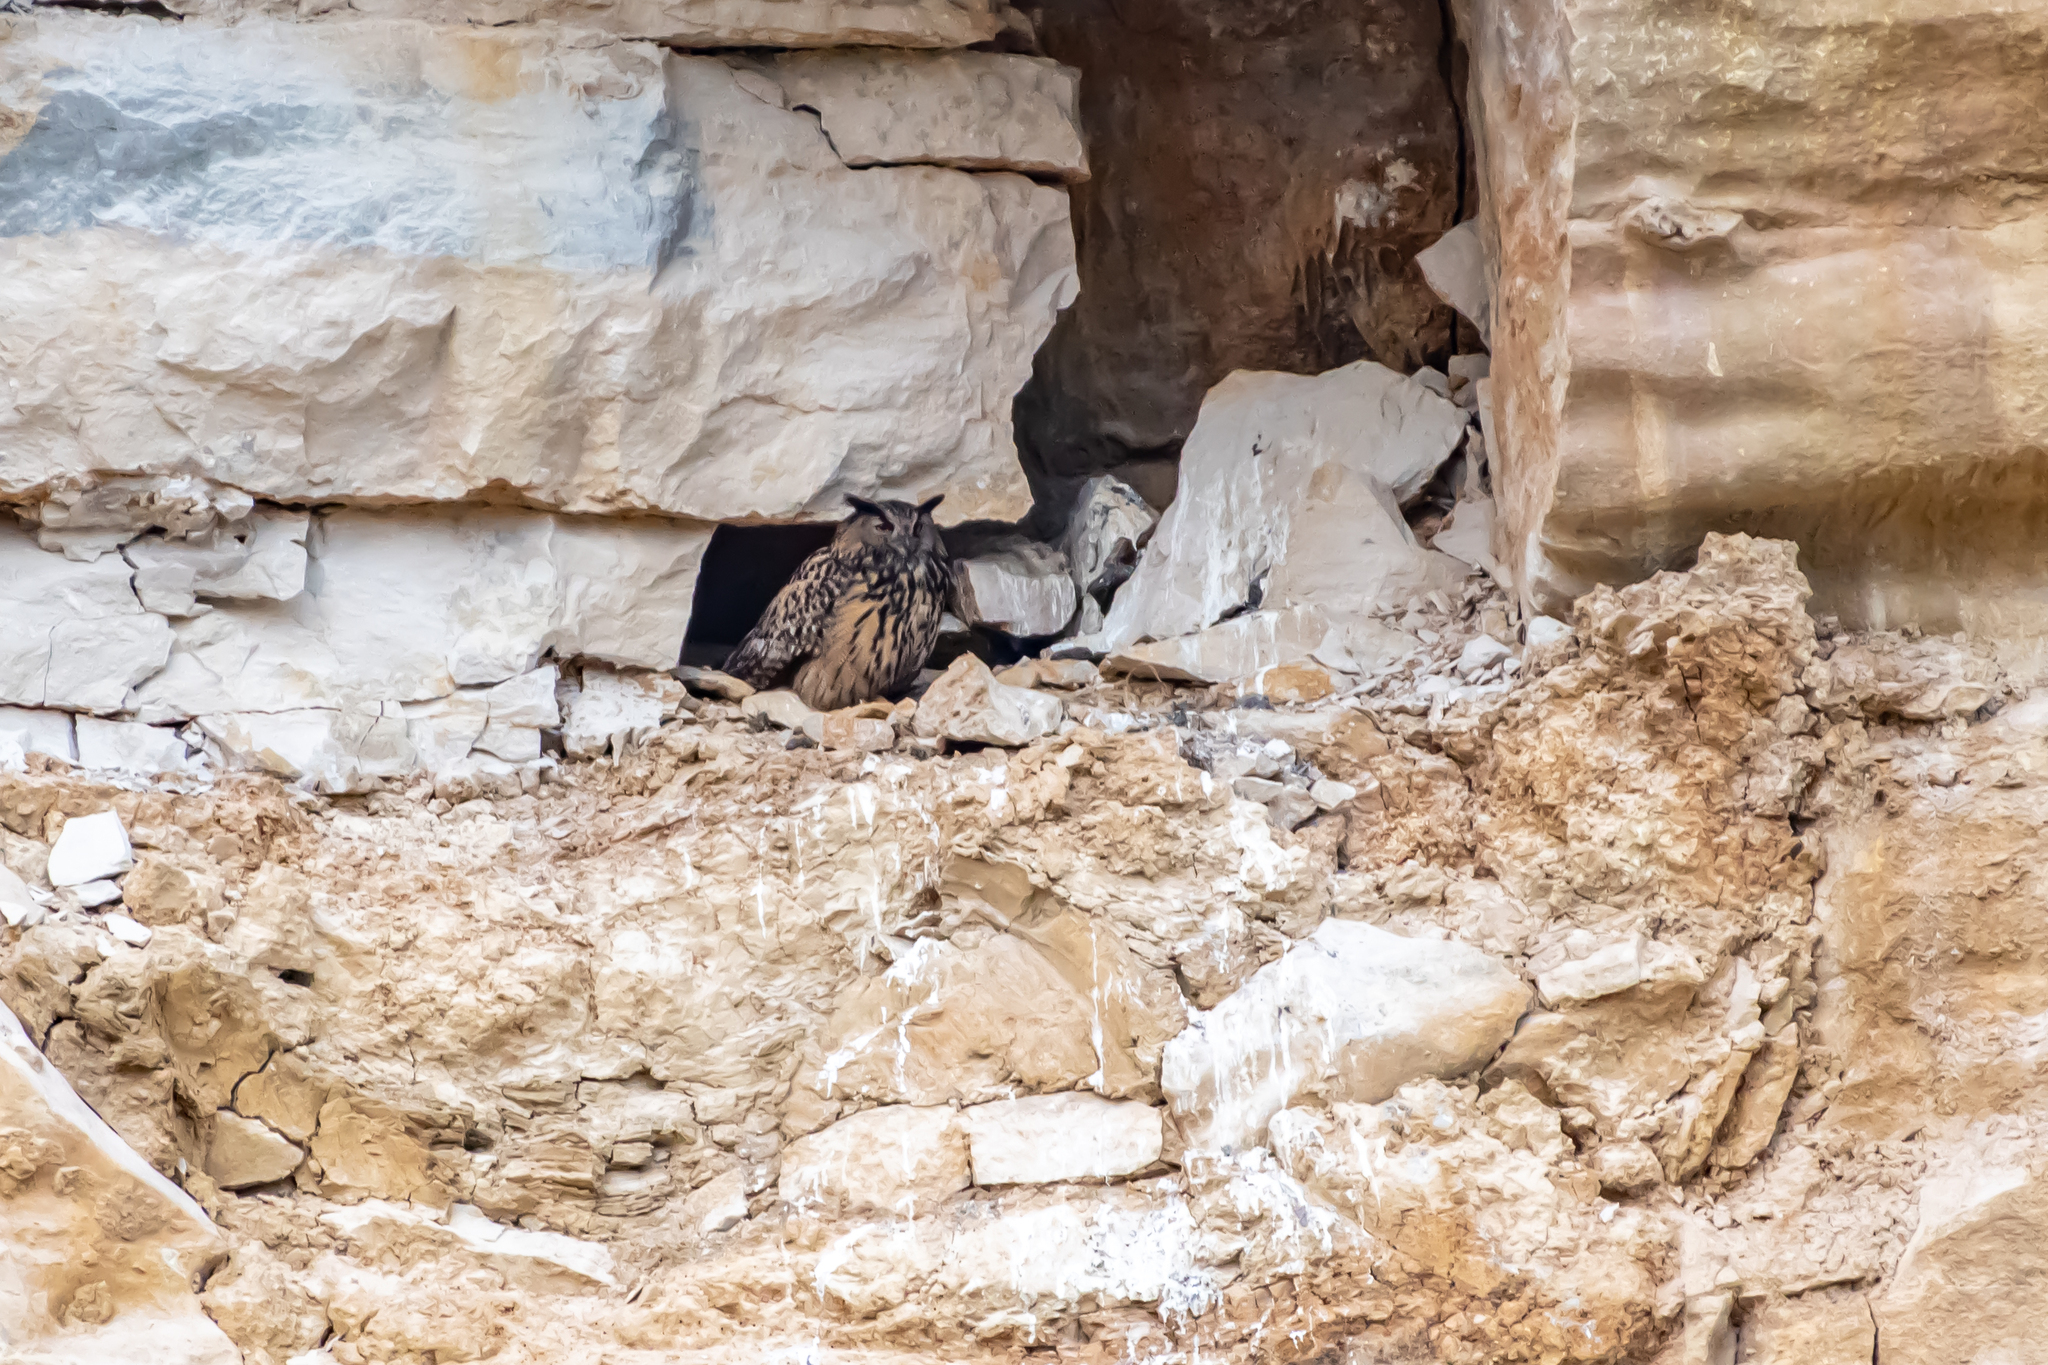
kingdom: Animalia
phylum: Chordata
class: Aves
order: Strigiformes
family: Strigidae
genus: Bubo
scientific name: Bubo bubo
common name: Eurasian eagle-owl
